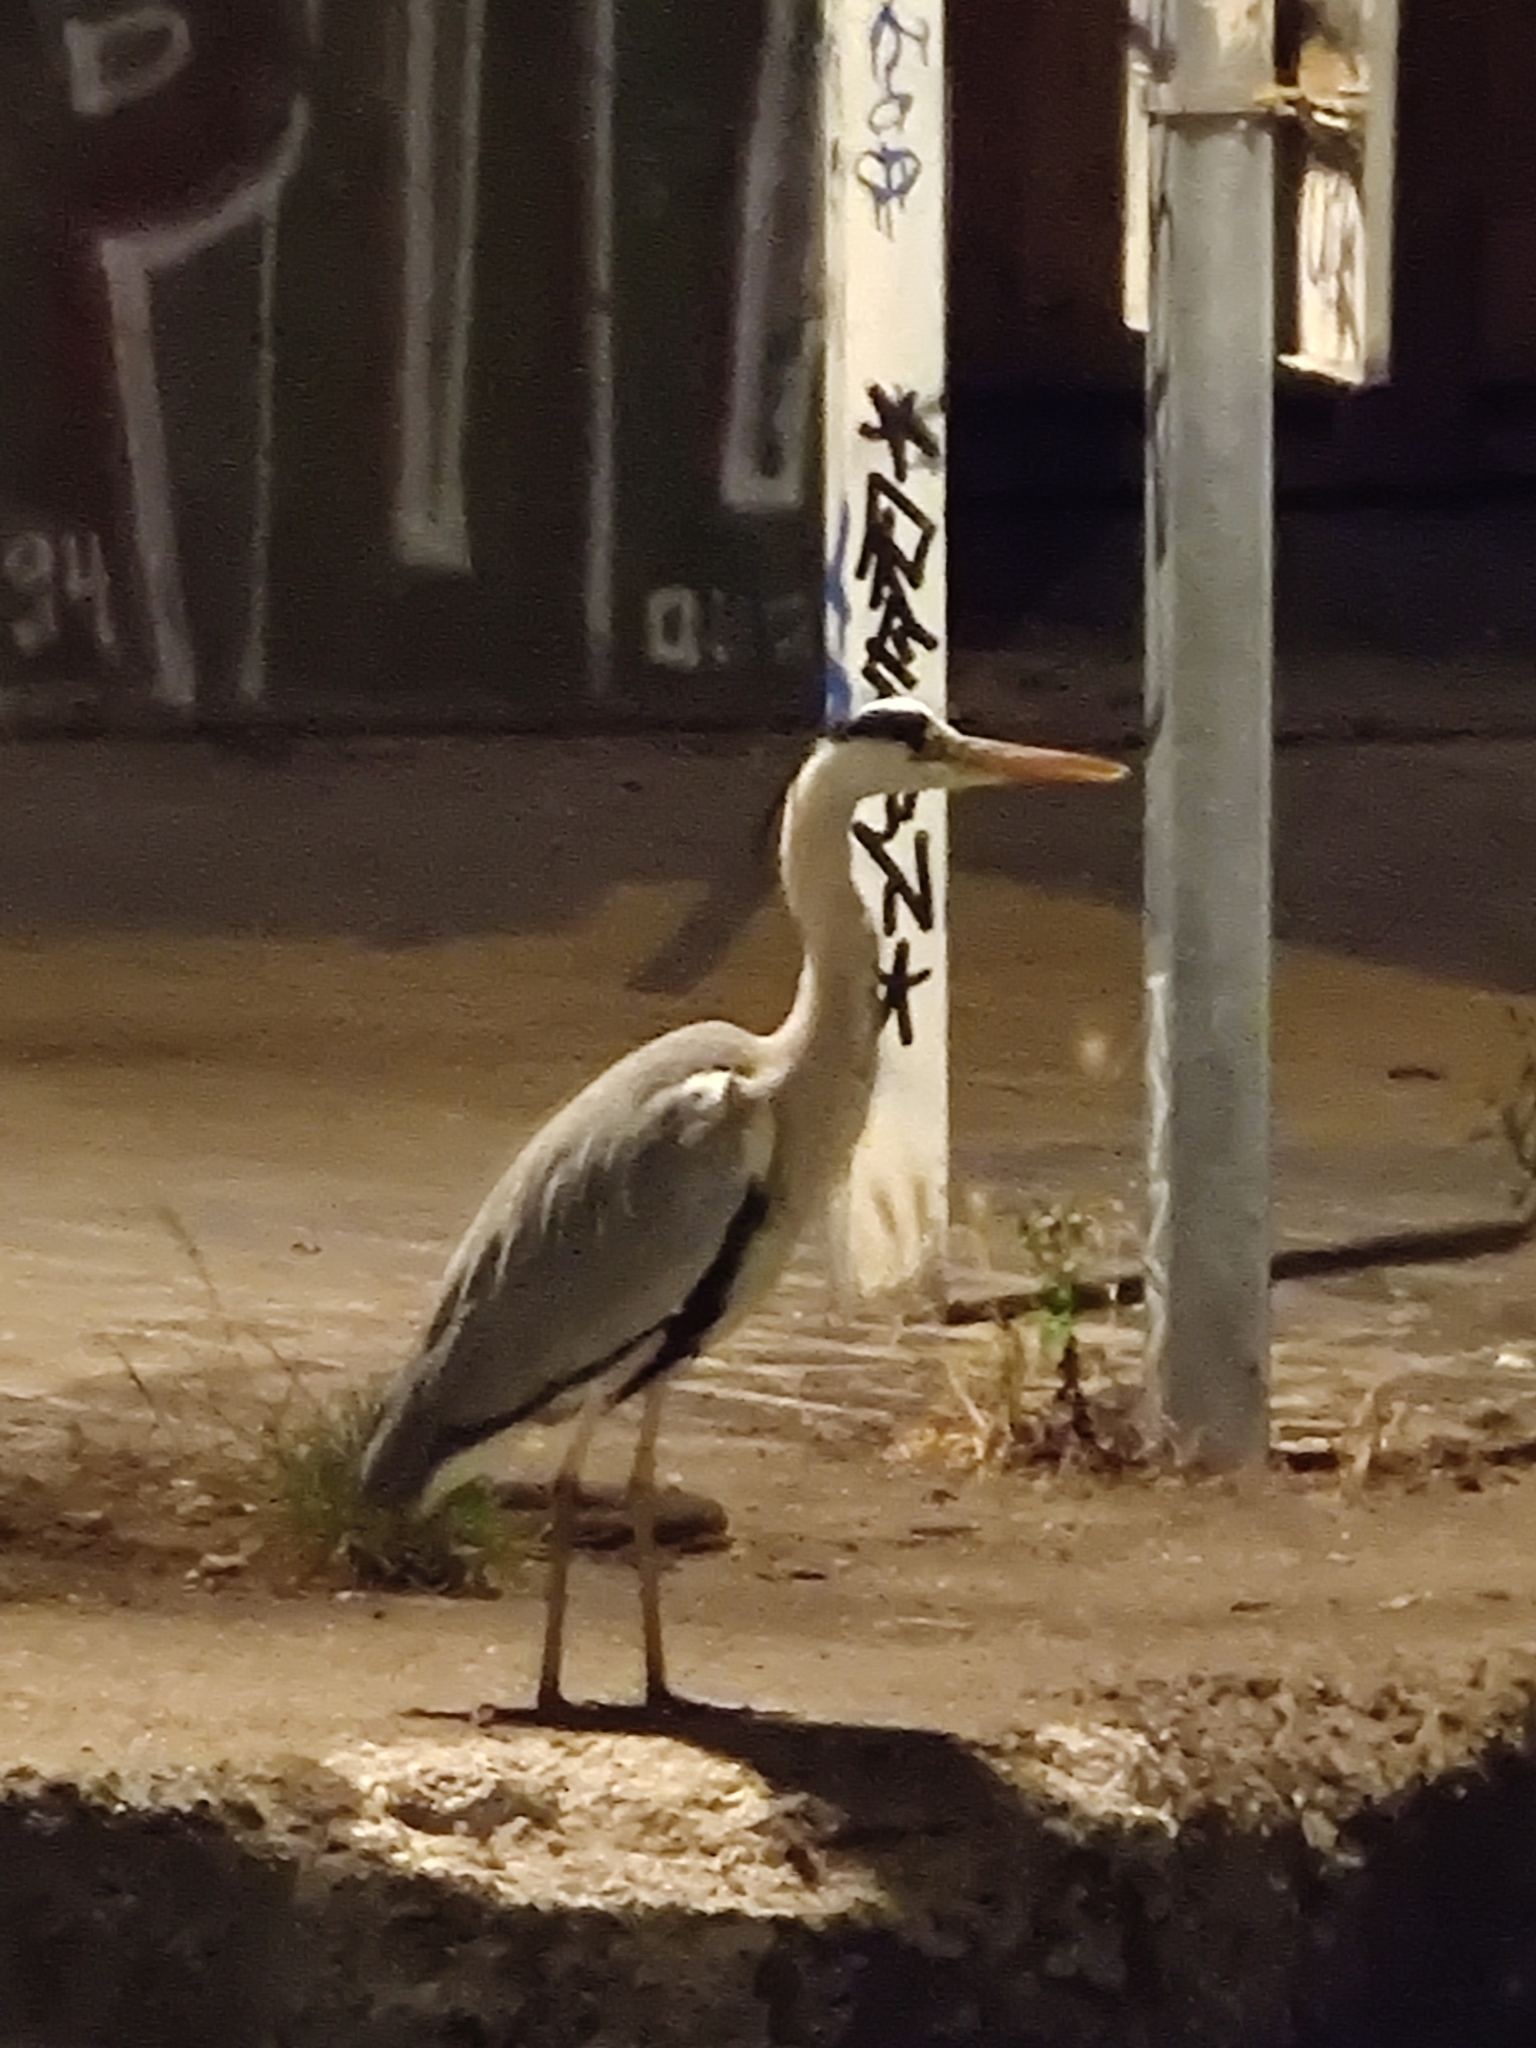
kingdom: Animalia
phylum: Chordata
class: Aves
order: Pelecaniformes
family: Ardeidae
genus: Ardea
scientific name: Ardea cinerea
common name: Grey heron
